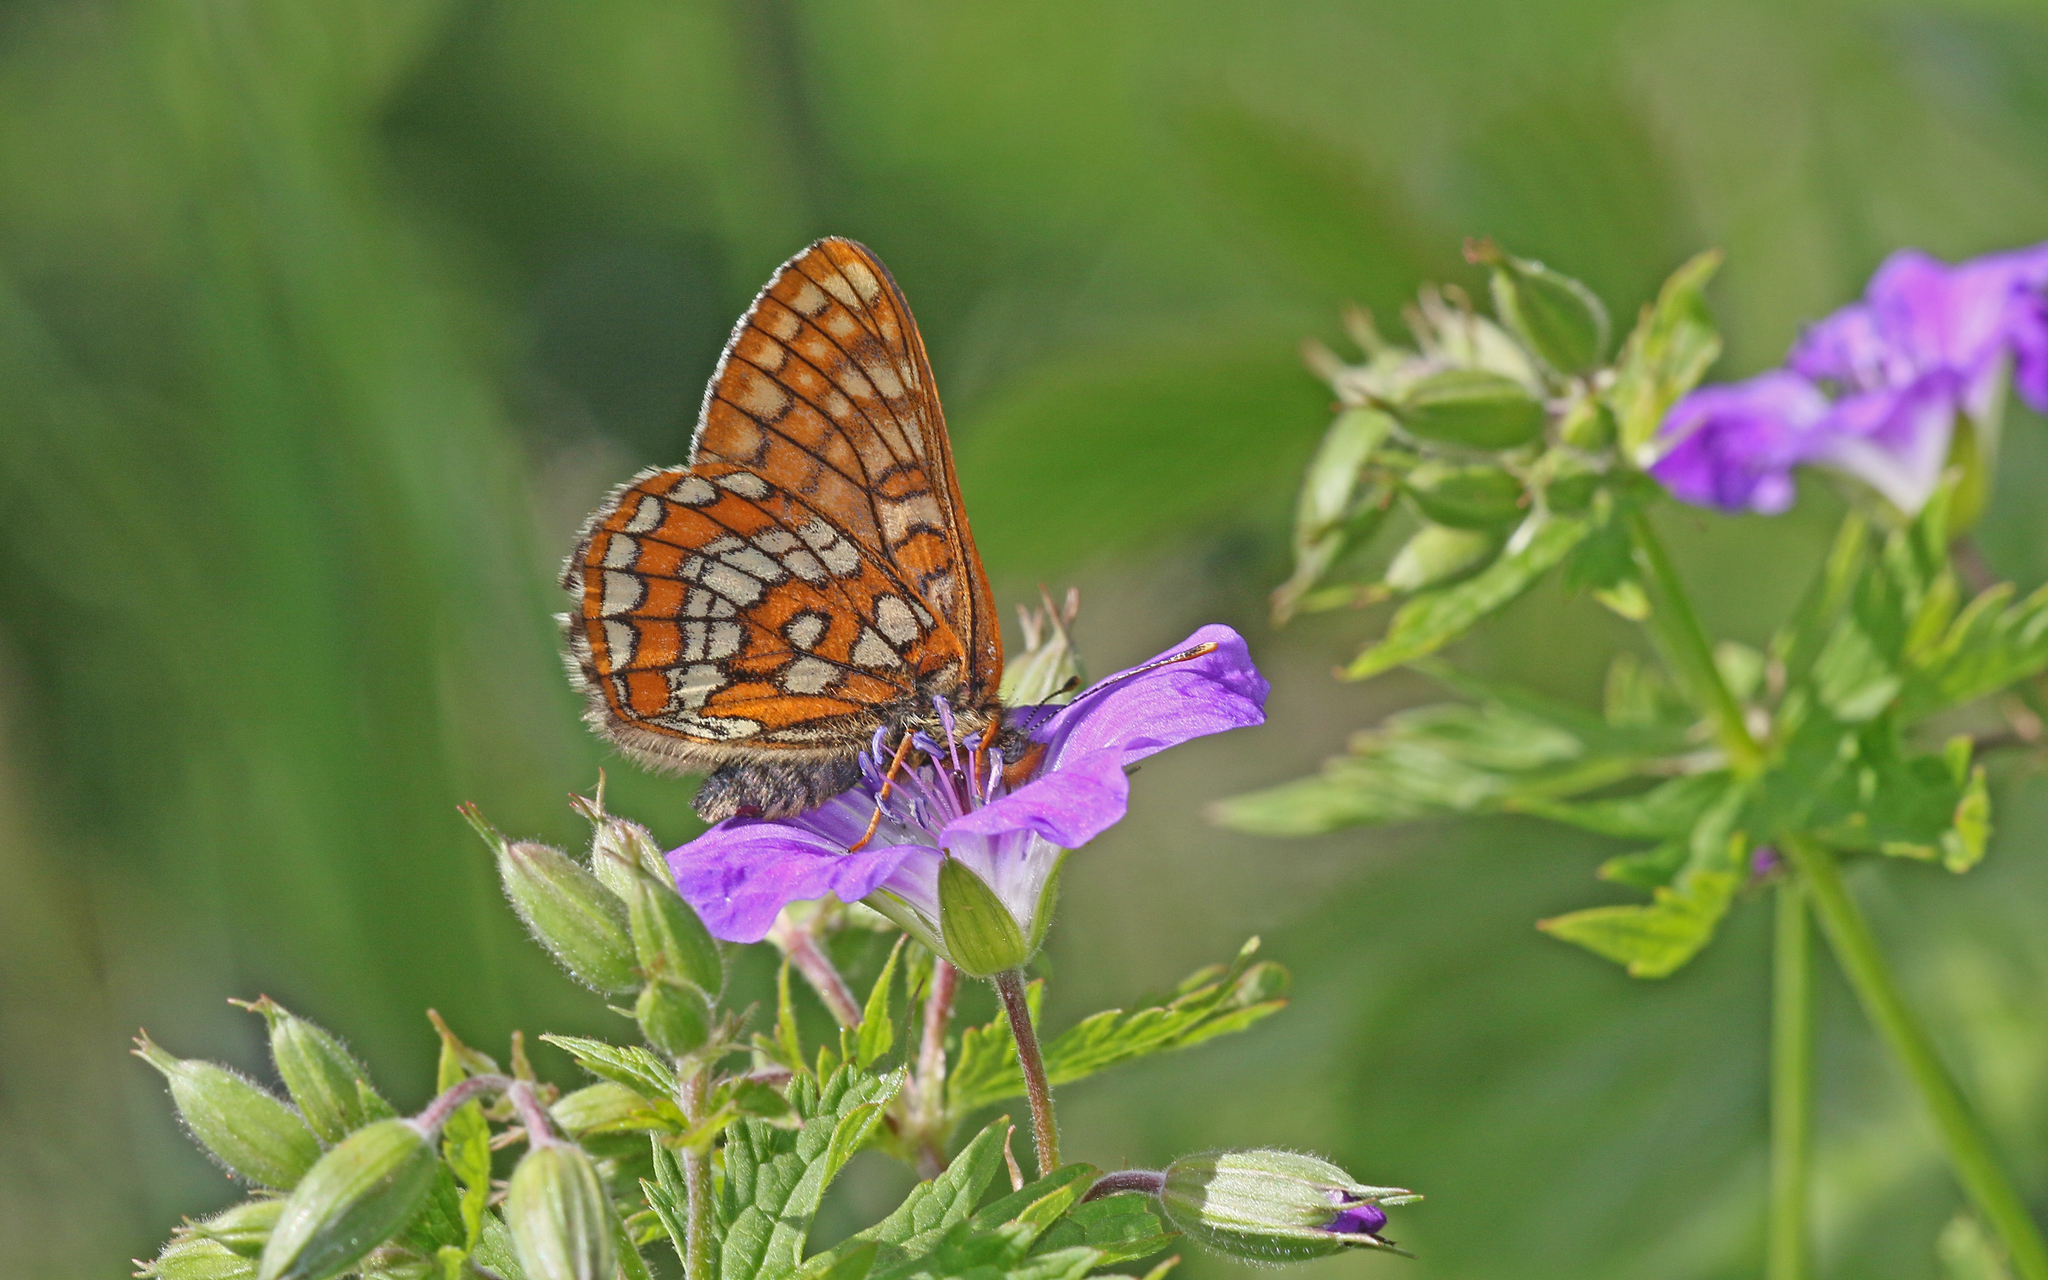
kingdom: Animalia
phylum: Arthropoda
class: Insecta
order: Lepidoptera
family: Nymphalidae
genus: Hypodryas
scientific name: Hypodryas intermedia
